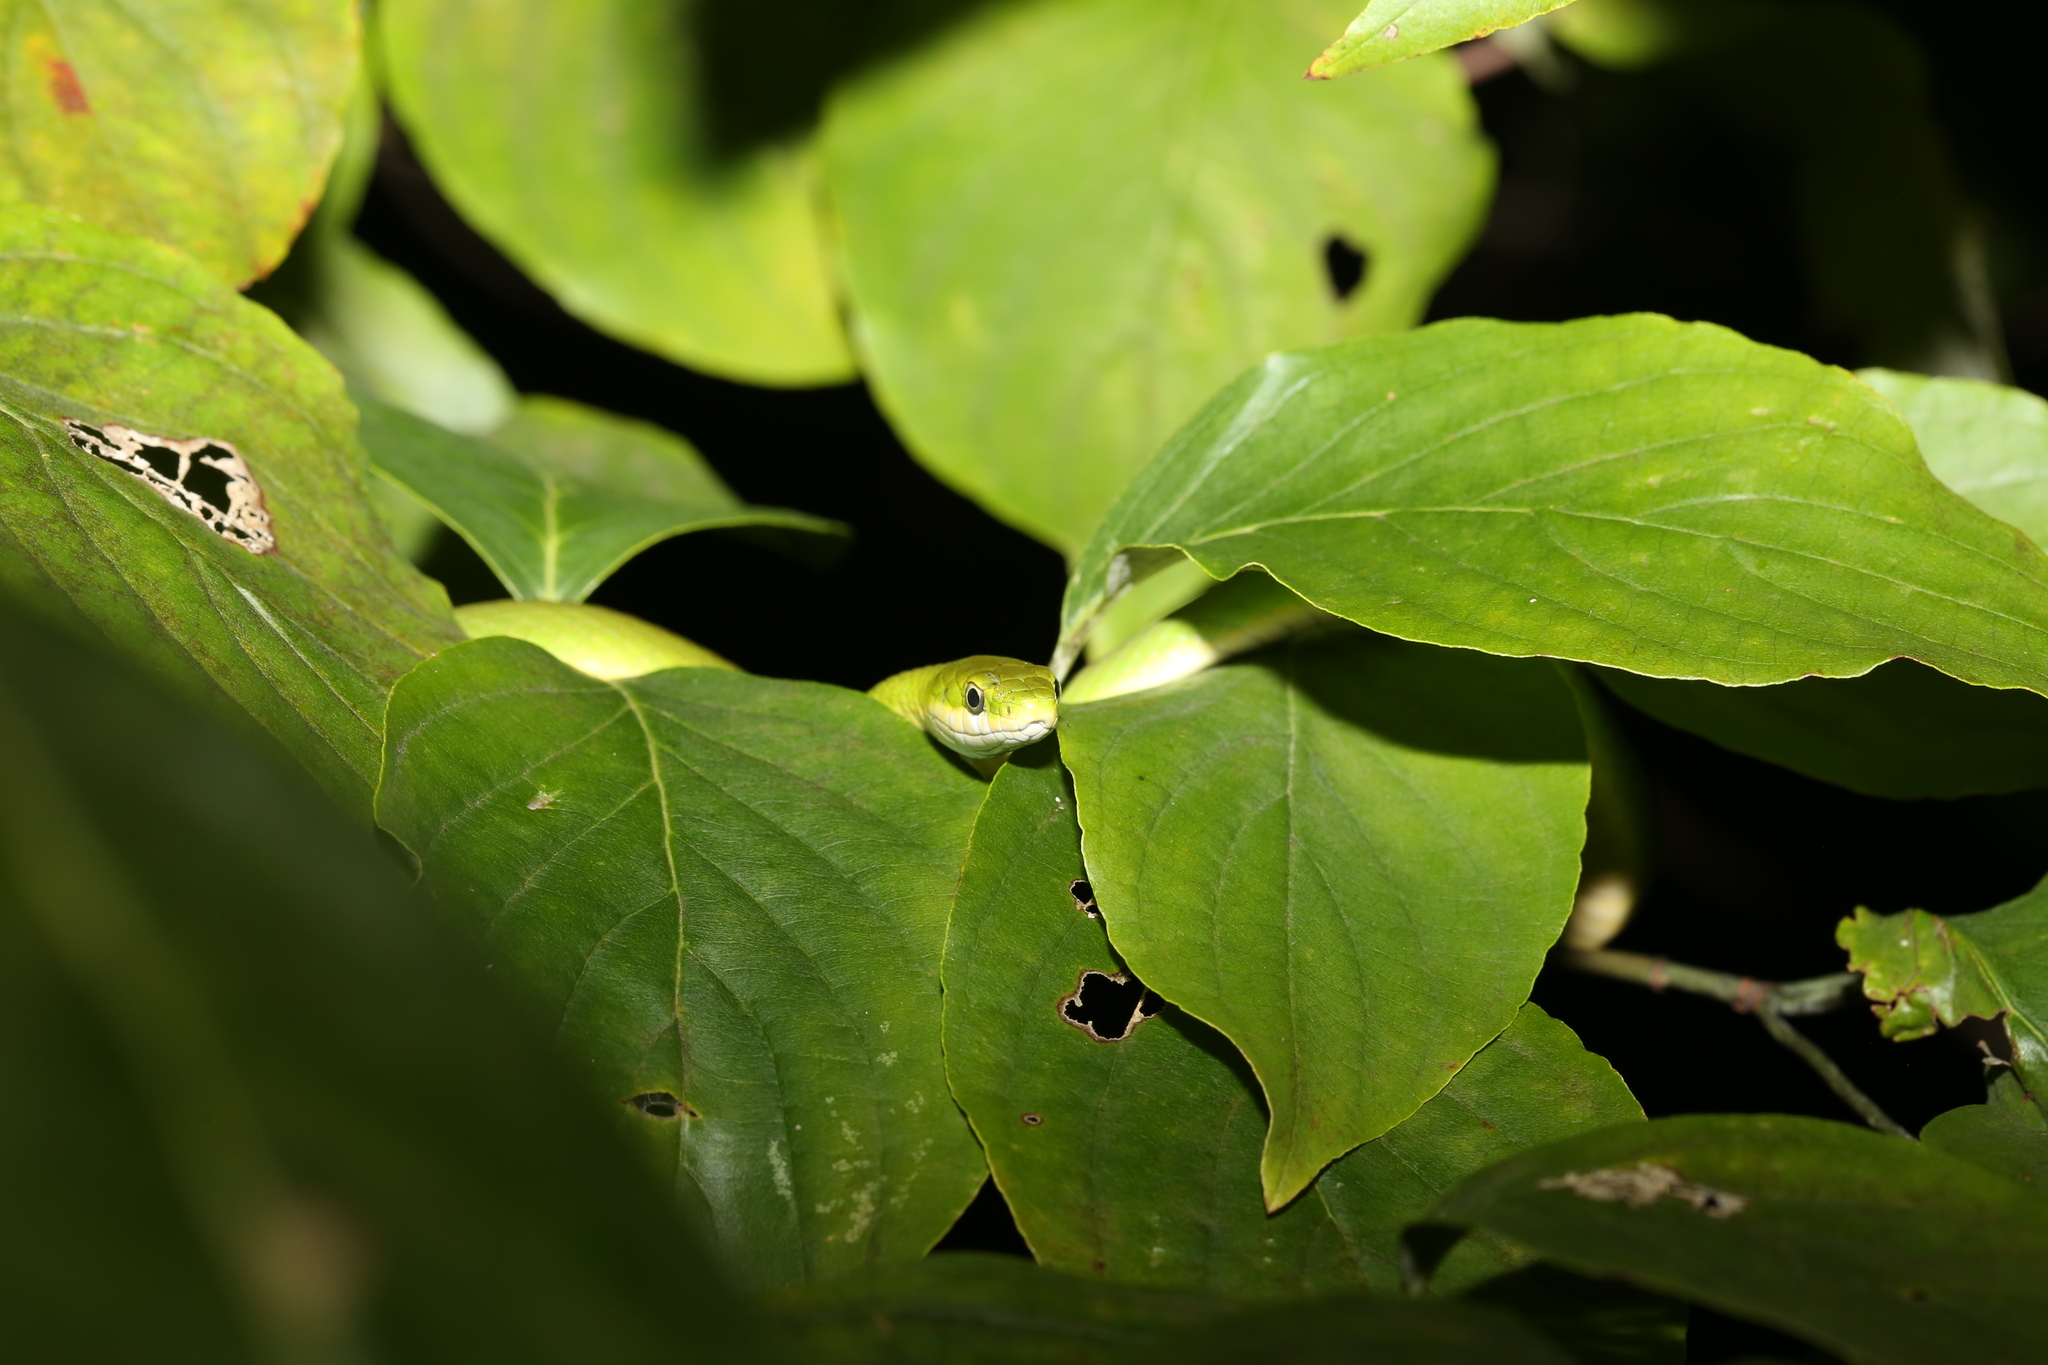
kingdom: Animalia
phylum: Chordata
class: Squamata
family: Colubridae
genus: Opheodrys
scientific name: Opheodrys aestivus
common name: Rough greensnake
